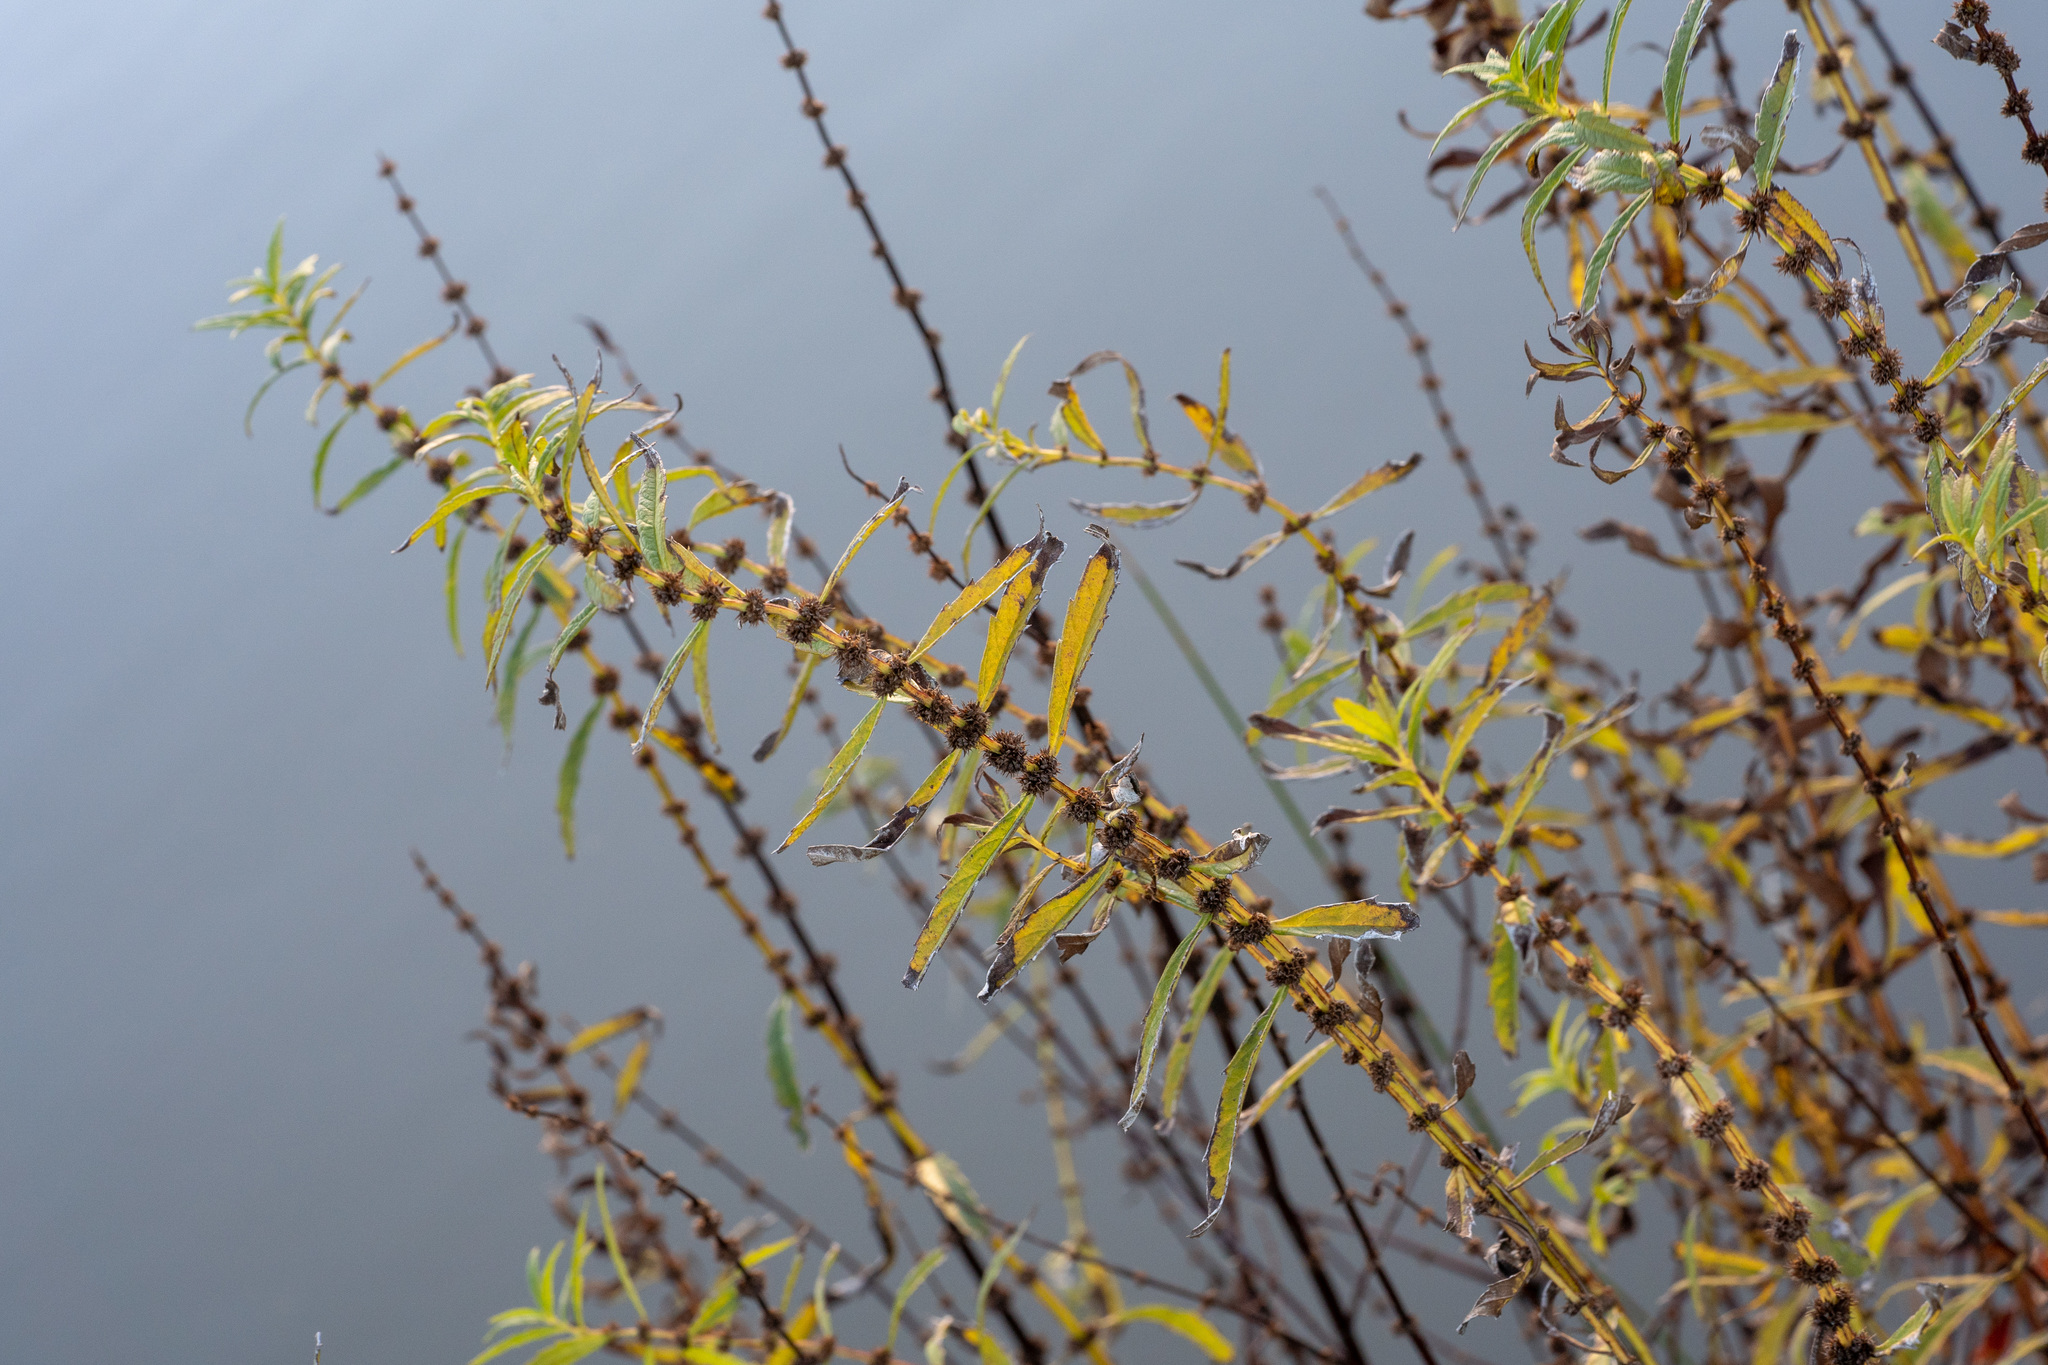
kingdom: Plantae
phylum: Tracheophyta
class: Magnoliopsida
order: Lamiales
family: Lamiaceae
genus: Lycopus
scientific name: Lycopus australis
